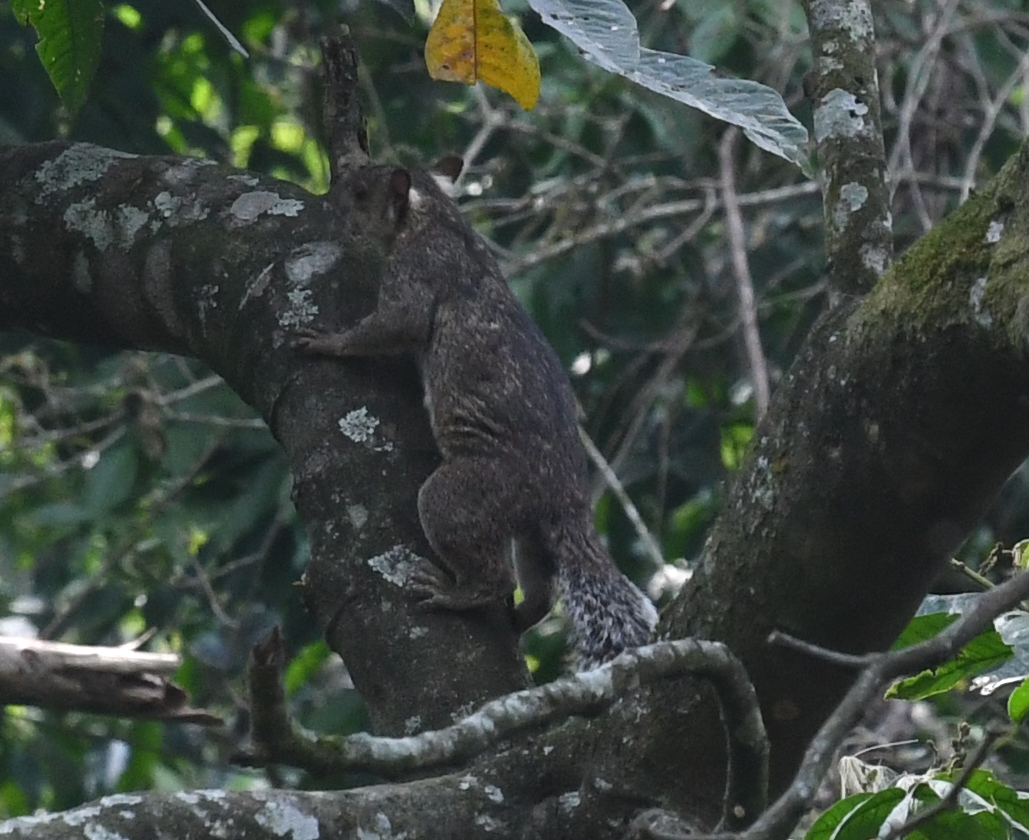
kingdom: Animalia
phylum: Chordata
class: Mammalia
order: Rodentia
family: Sciuridae
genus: Sciurus
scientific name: Sciurus variegatoides
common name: Variegated squirrel
